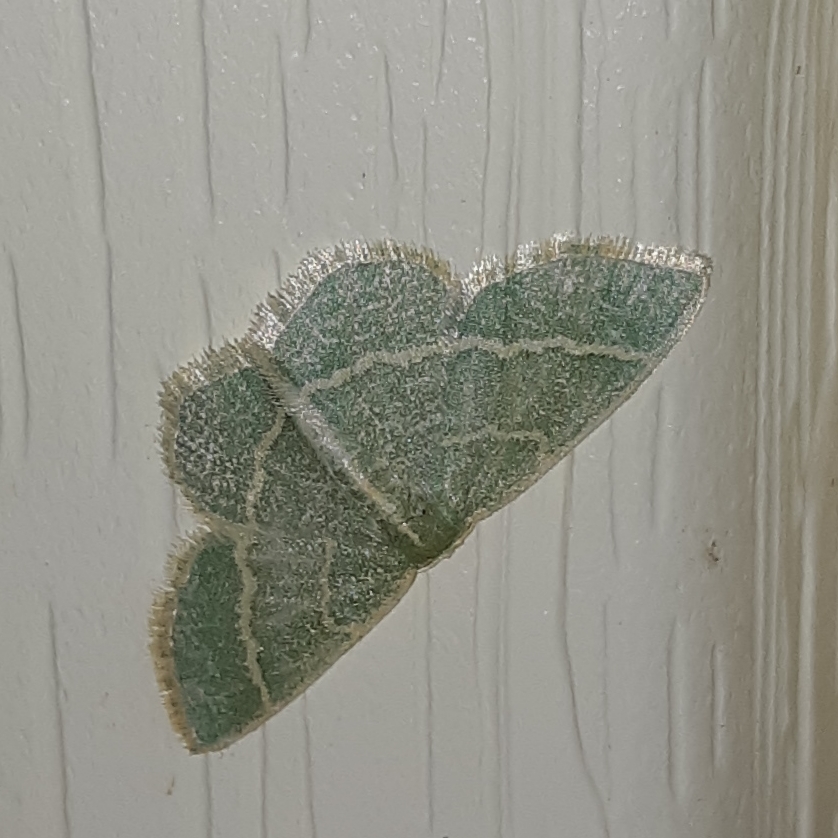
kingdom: Animalia
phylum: Arthropoda
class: Insecta
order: Lepidoptera
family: Geometridae
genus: Chlorochlamys
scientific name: Chlorochlamys chloroleucaria
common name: Blackberry looper
